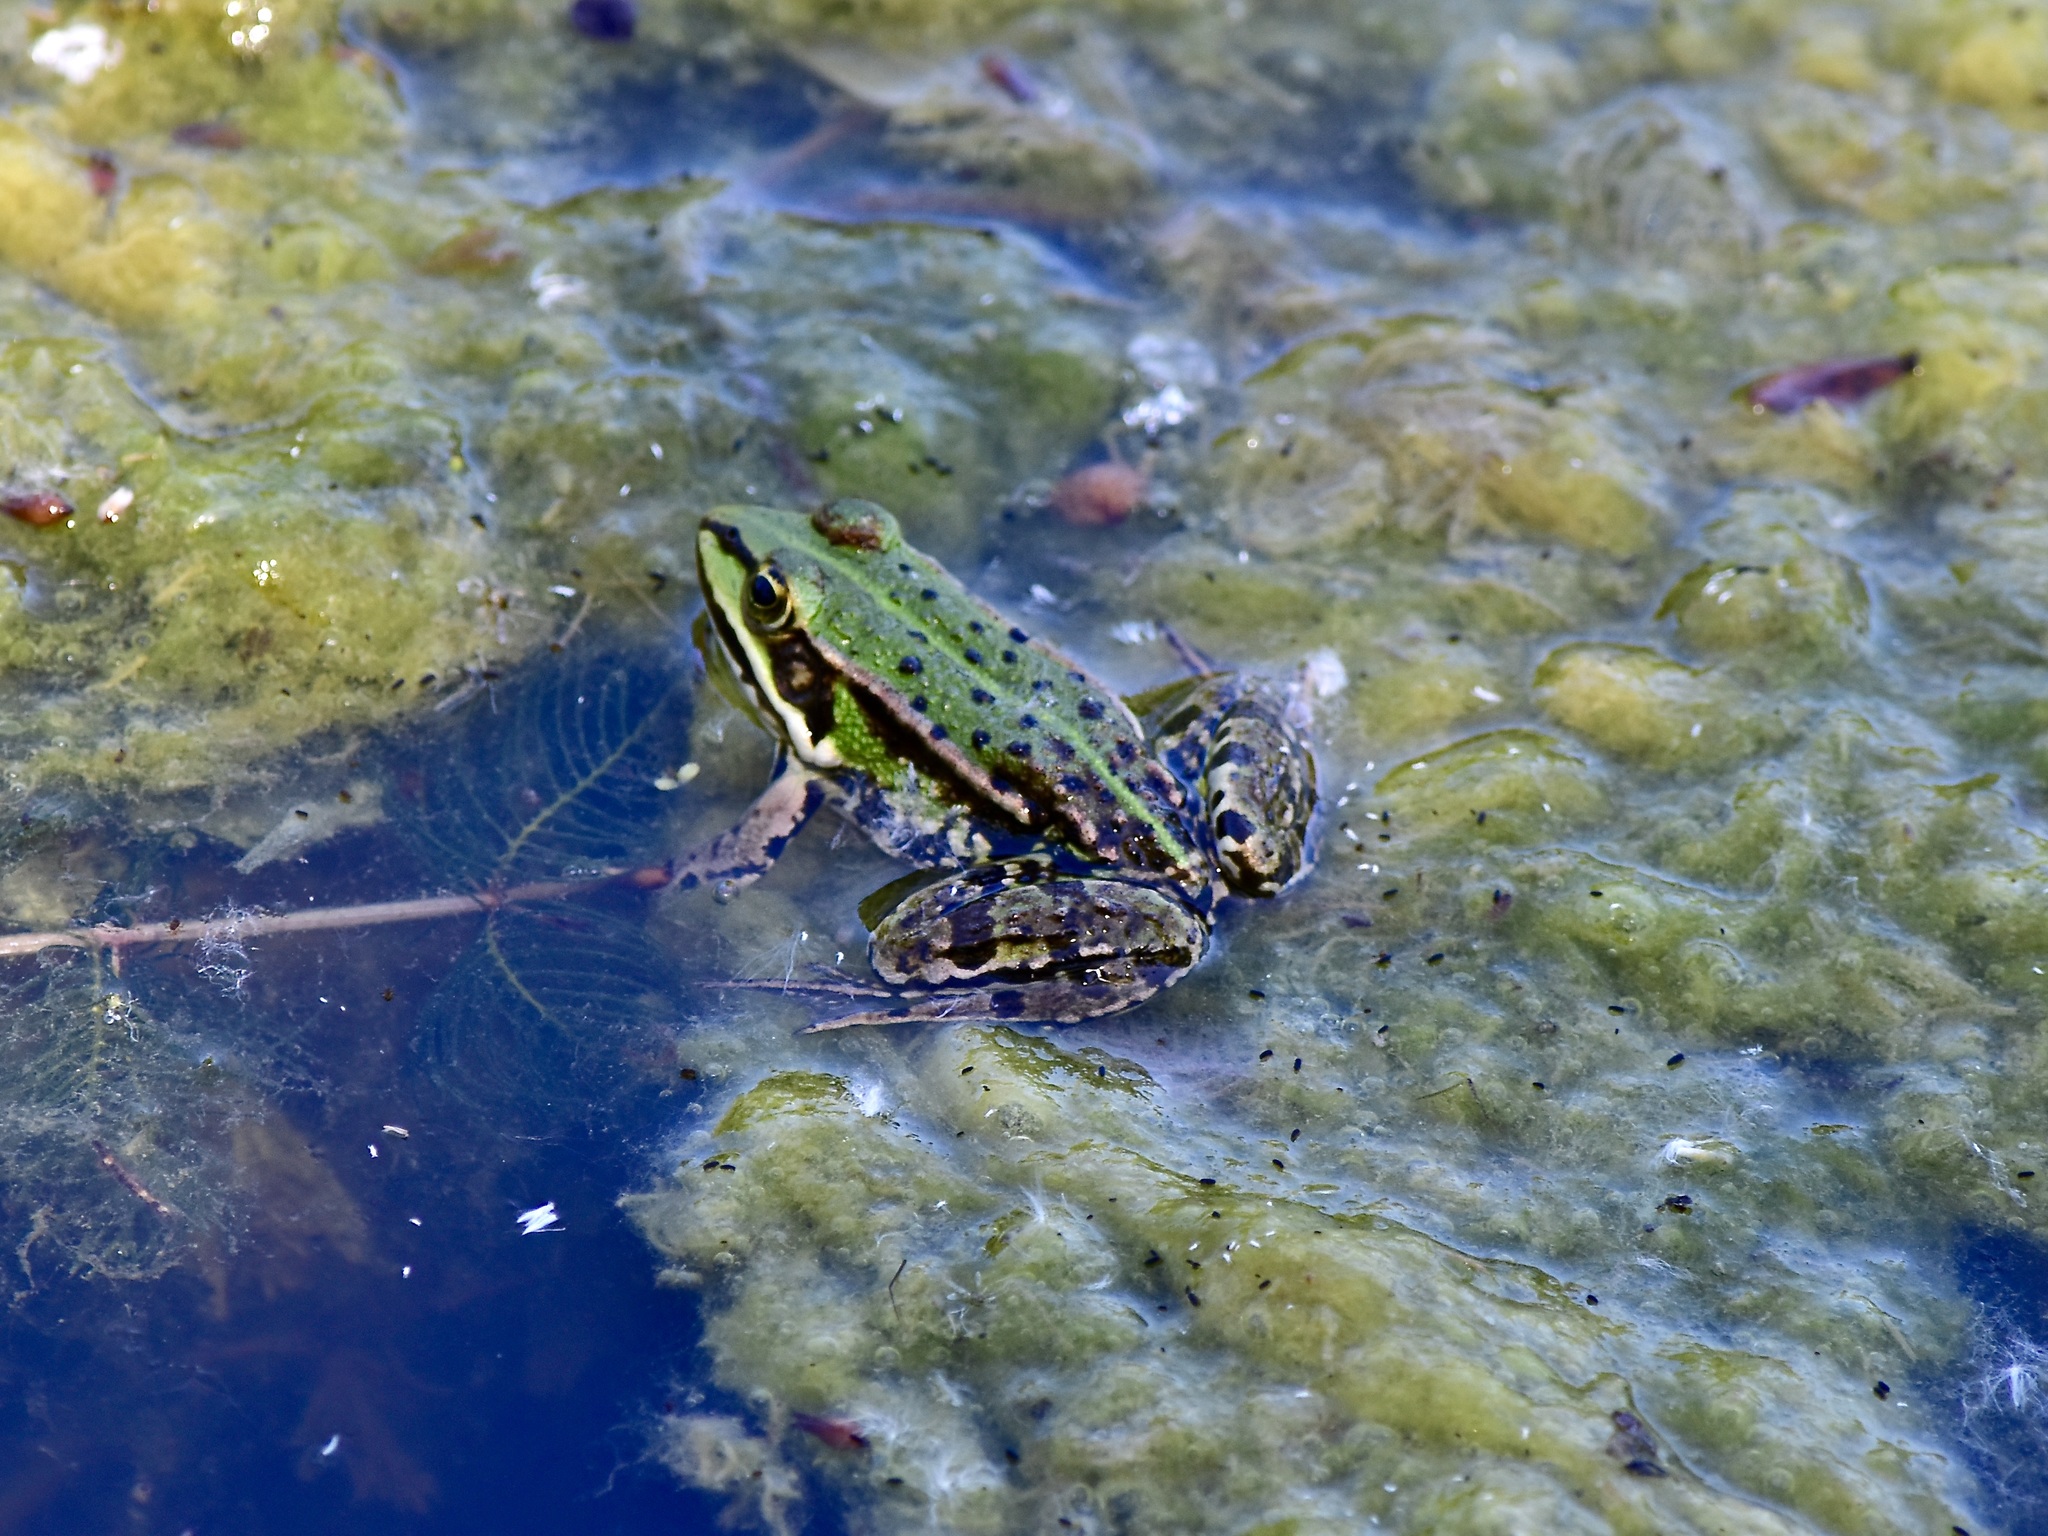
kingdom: Animalia
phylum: Chordata
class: Amphibia
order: Anura
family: Ranidae
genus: Pelophylax
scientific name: Pelophylax
